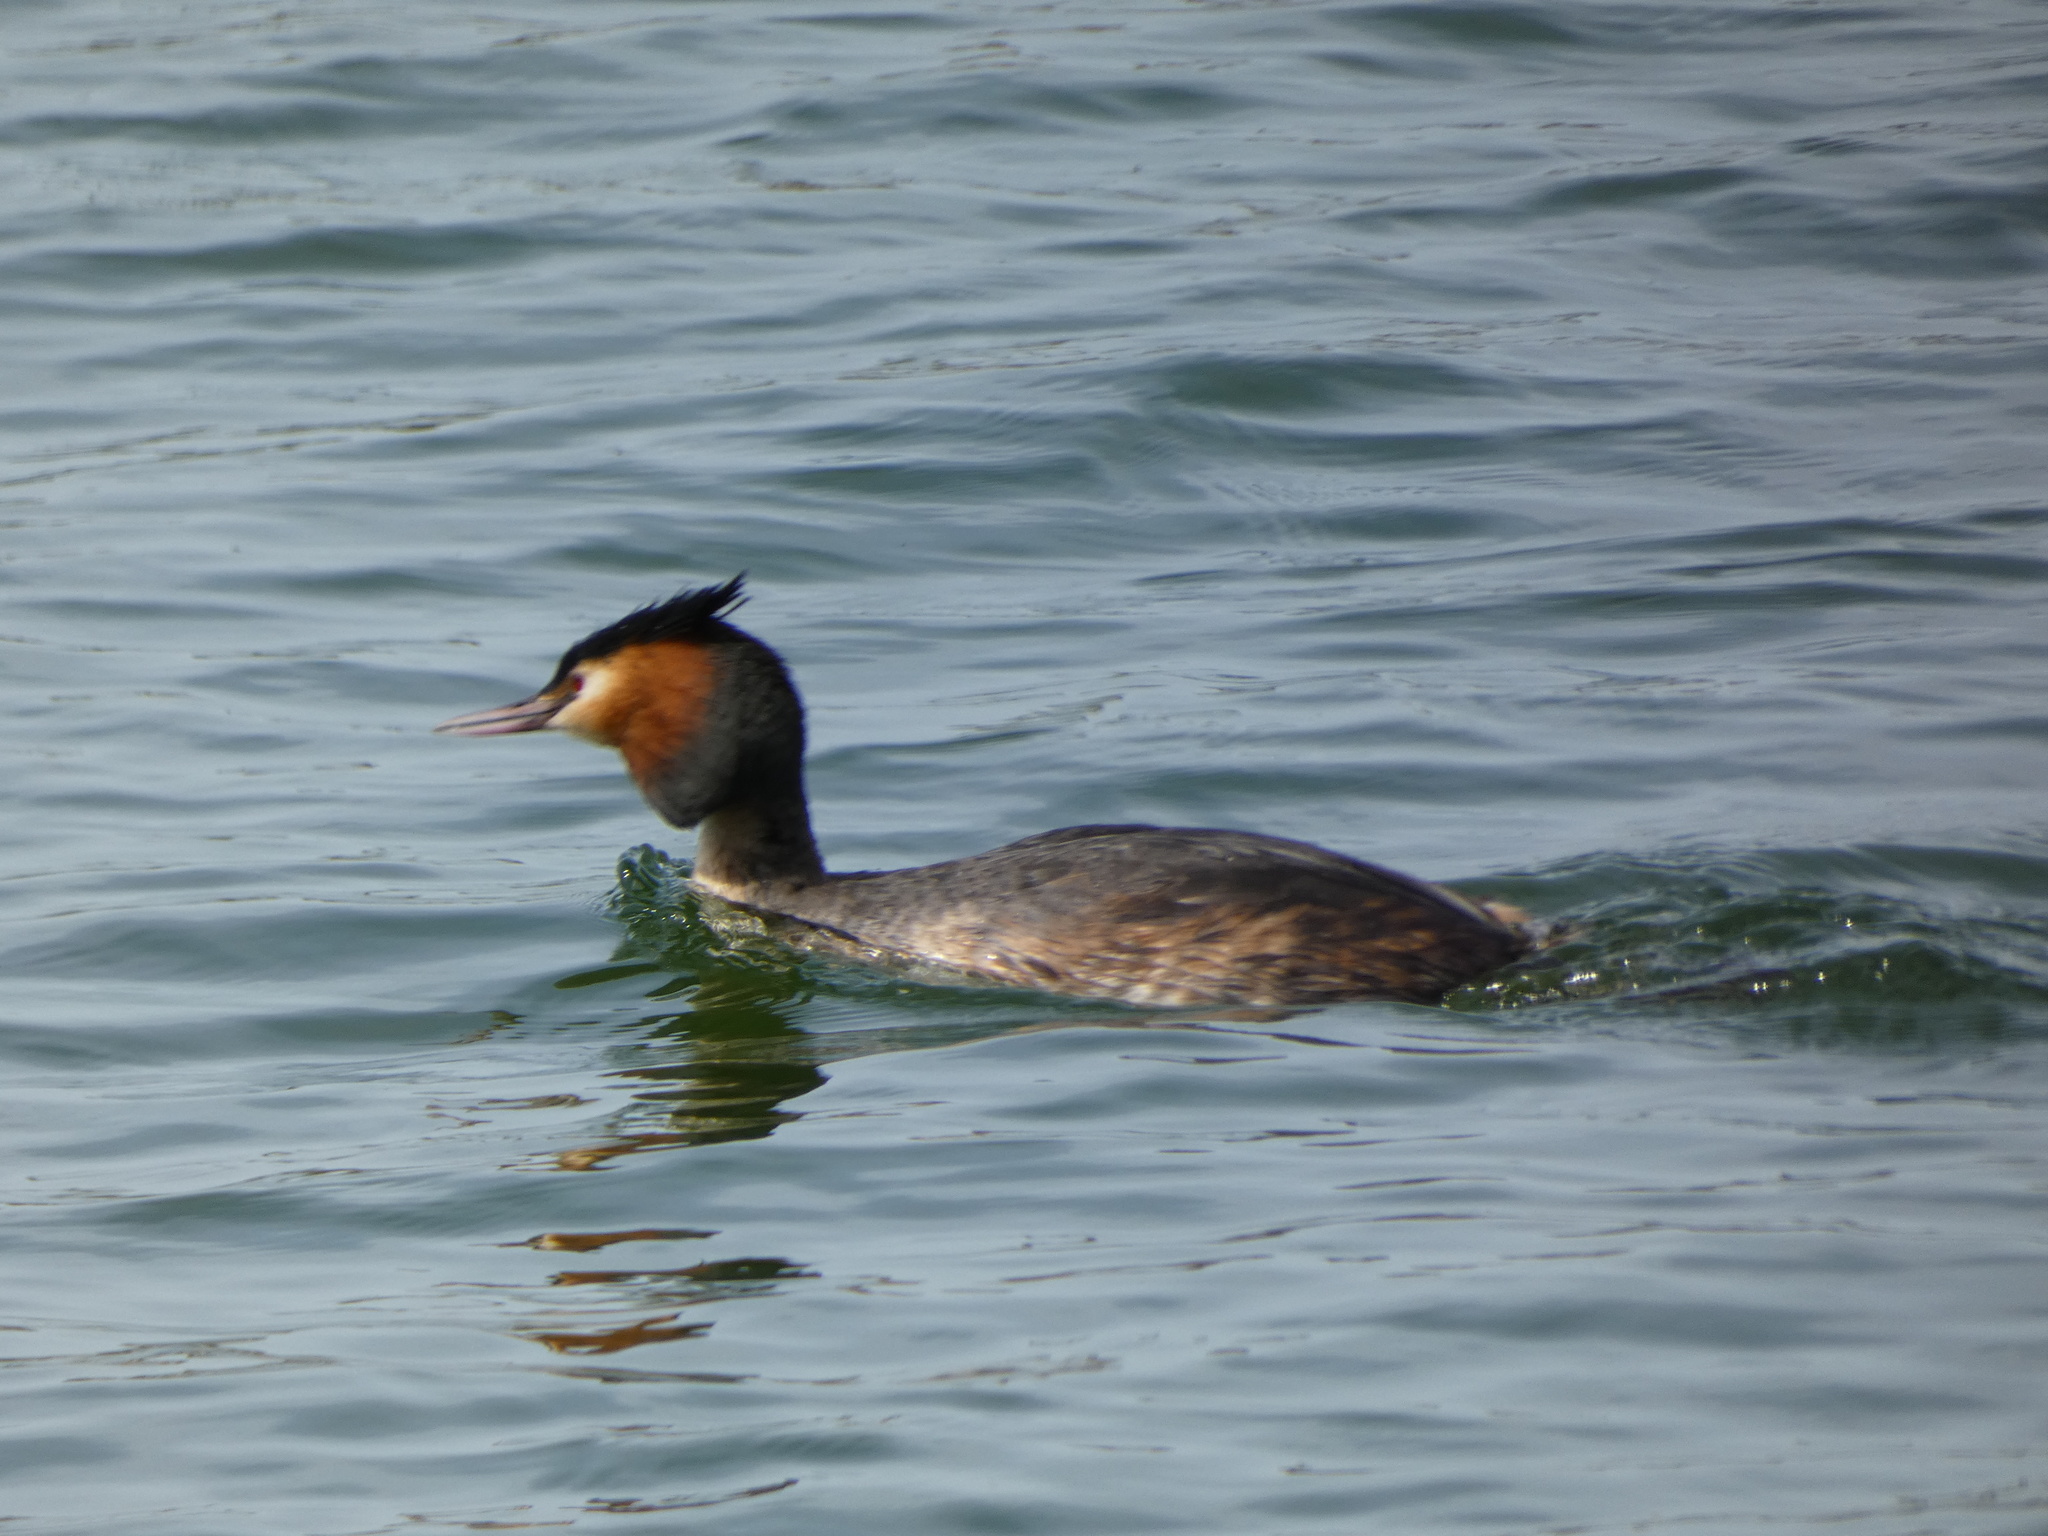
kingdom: Animalia
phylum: Chordata
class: Aves
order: Podicipediformes
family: Podicipedidae
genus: Podiceps
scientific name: Podiceps cristatus
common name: Great crested grebe
